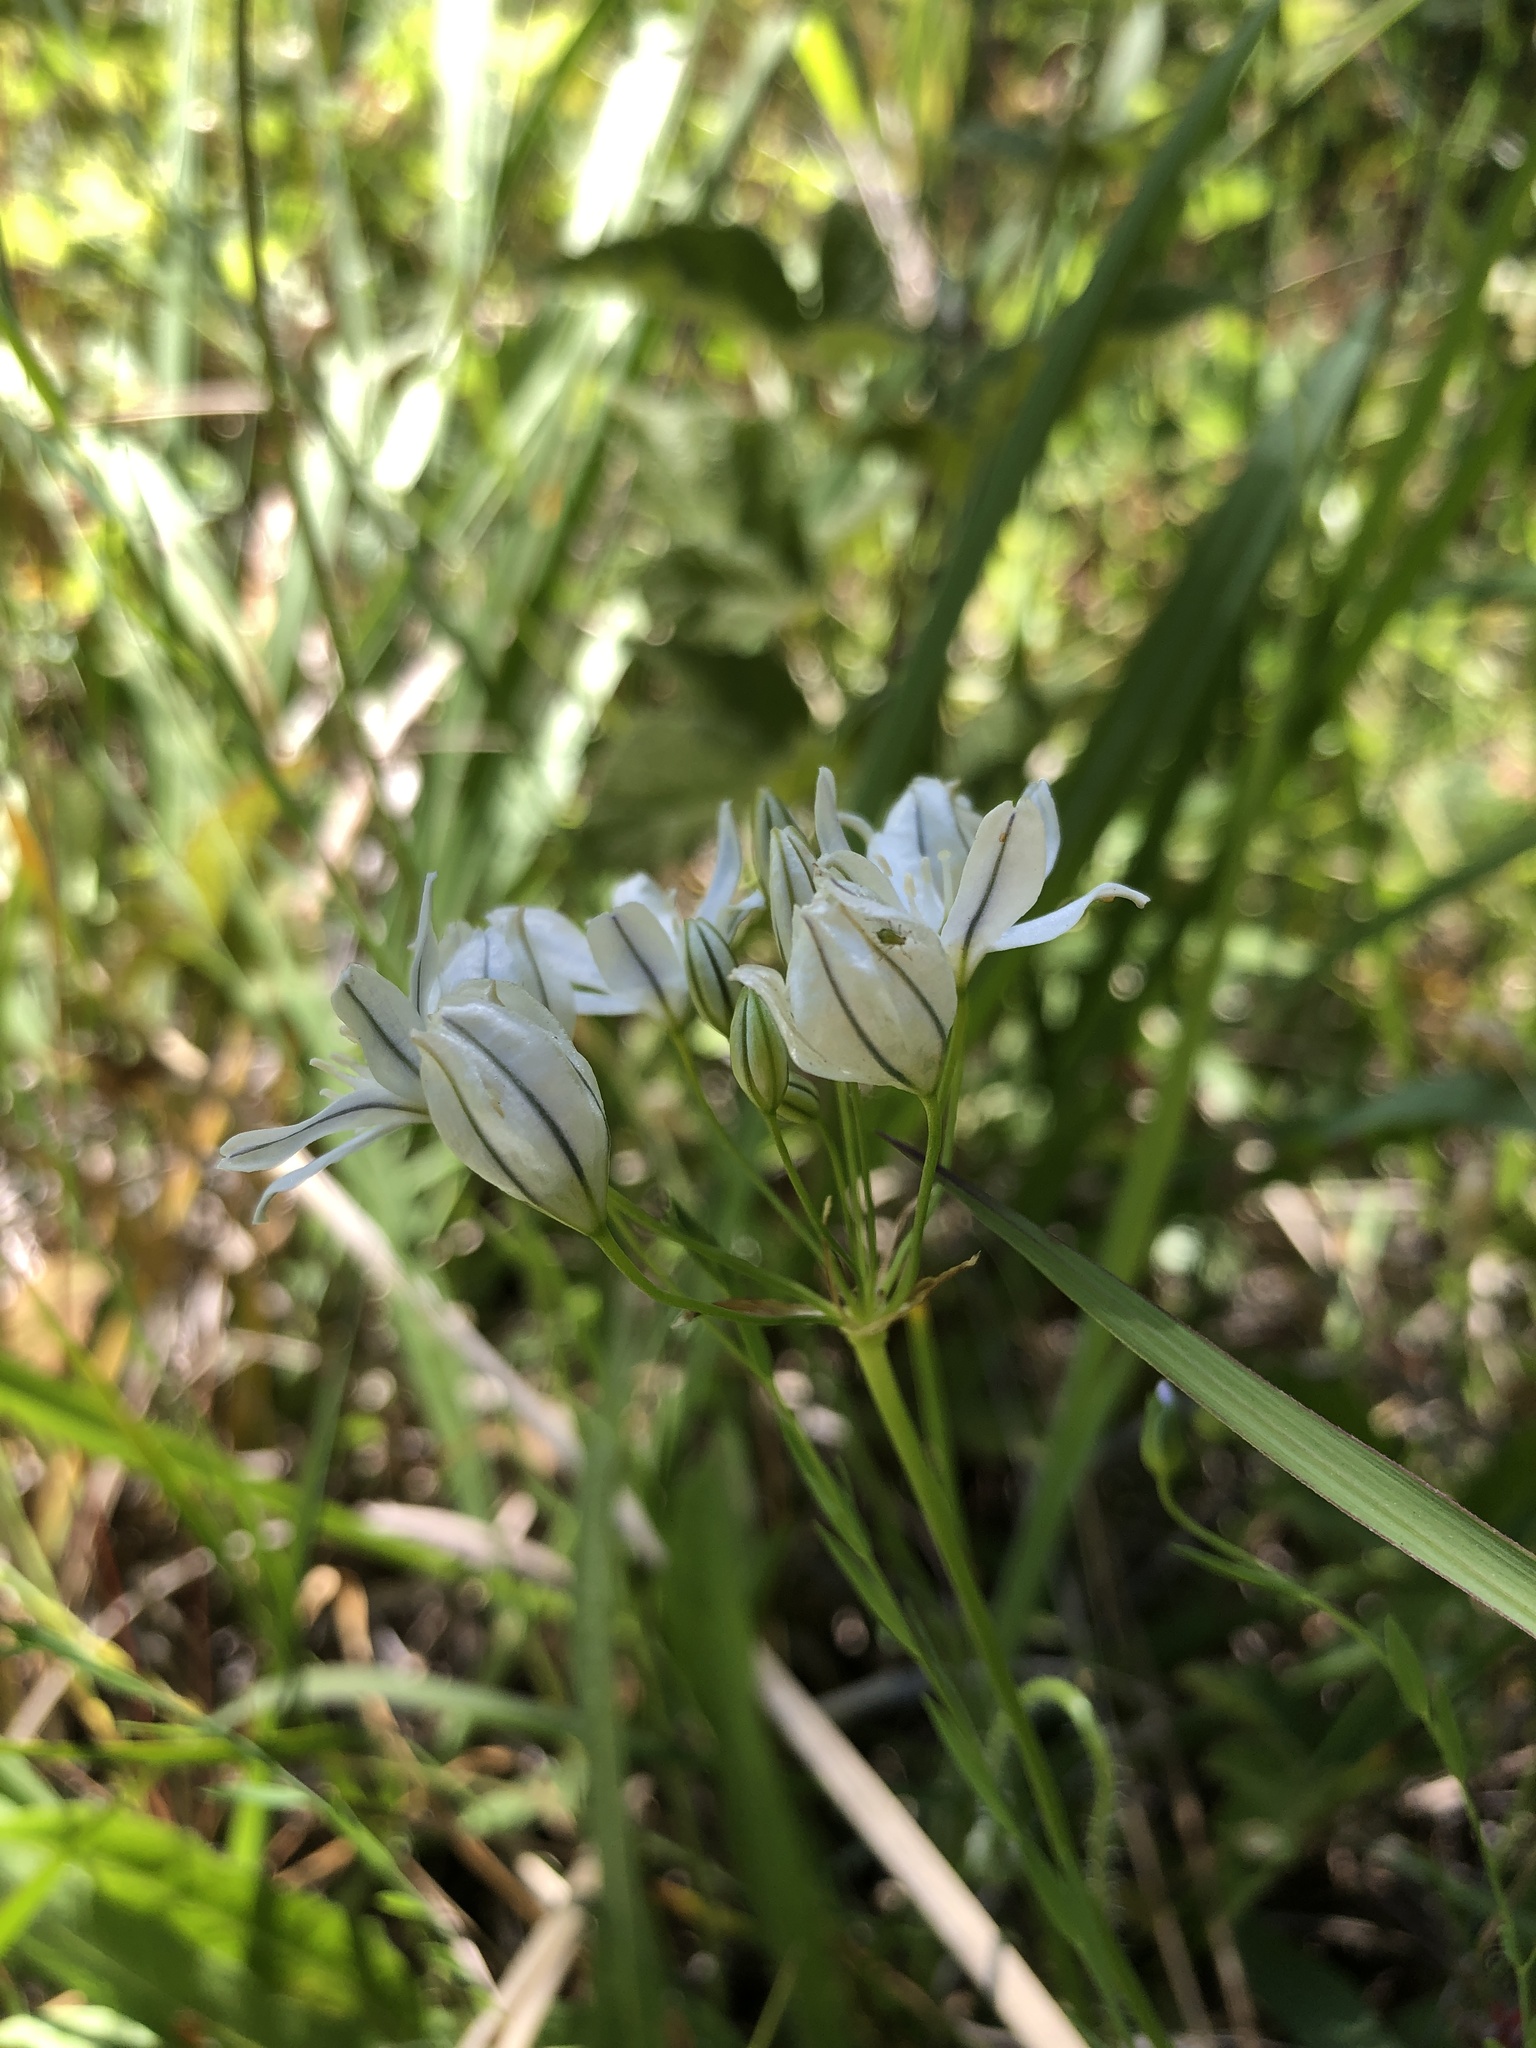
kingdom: Plantae
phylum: Tracheophyta
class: Liliopsida
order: Asparagales
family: Asparagaceae
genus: Triteleia
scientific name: Triteleia hyacinthina
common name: White brodiaea
